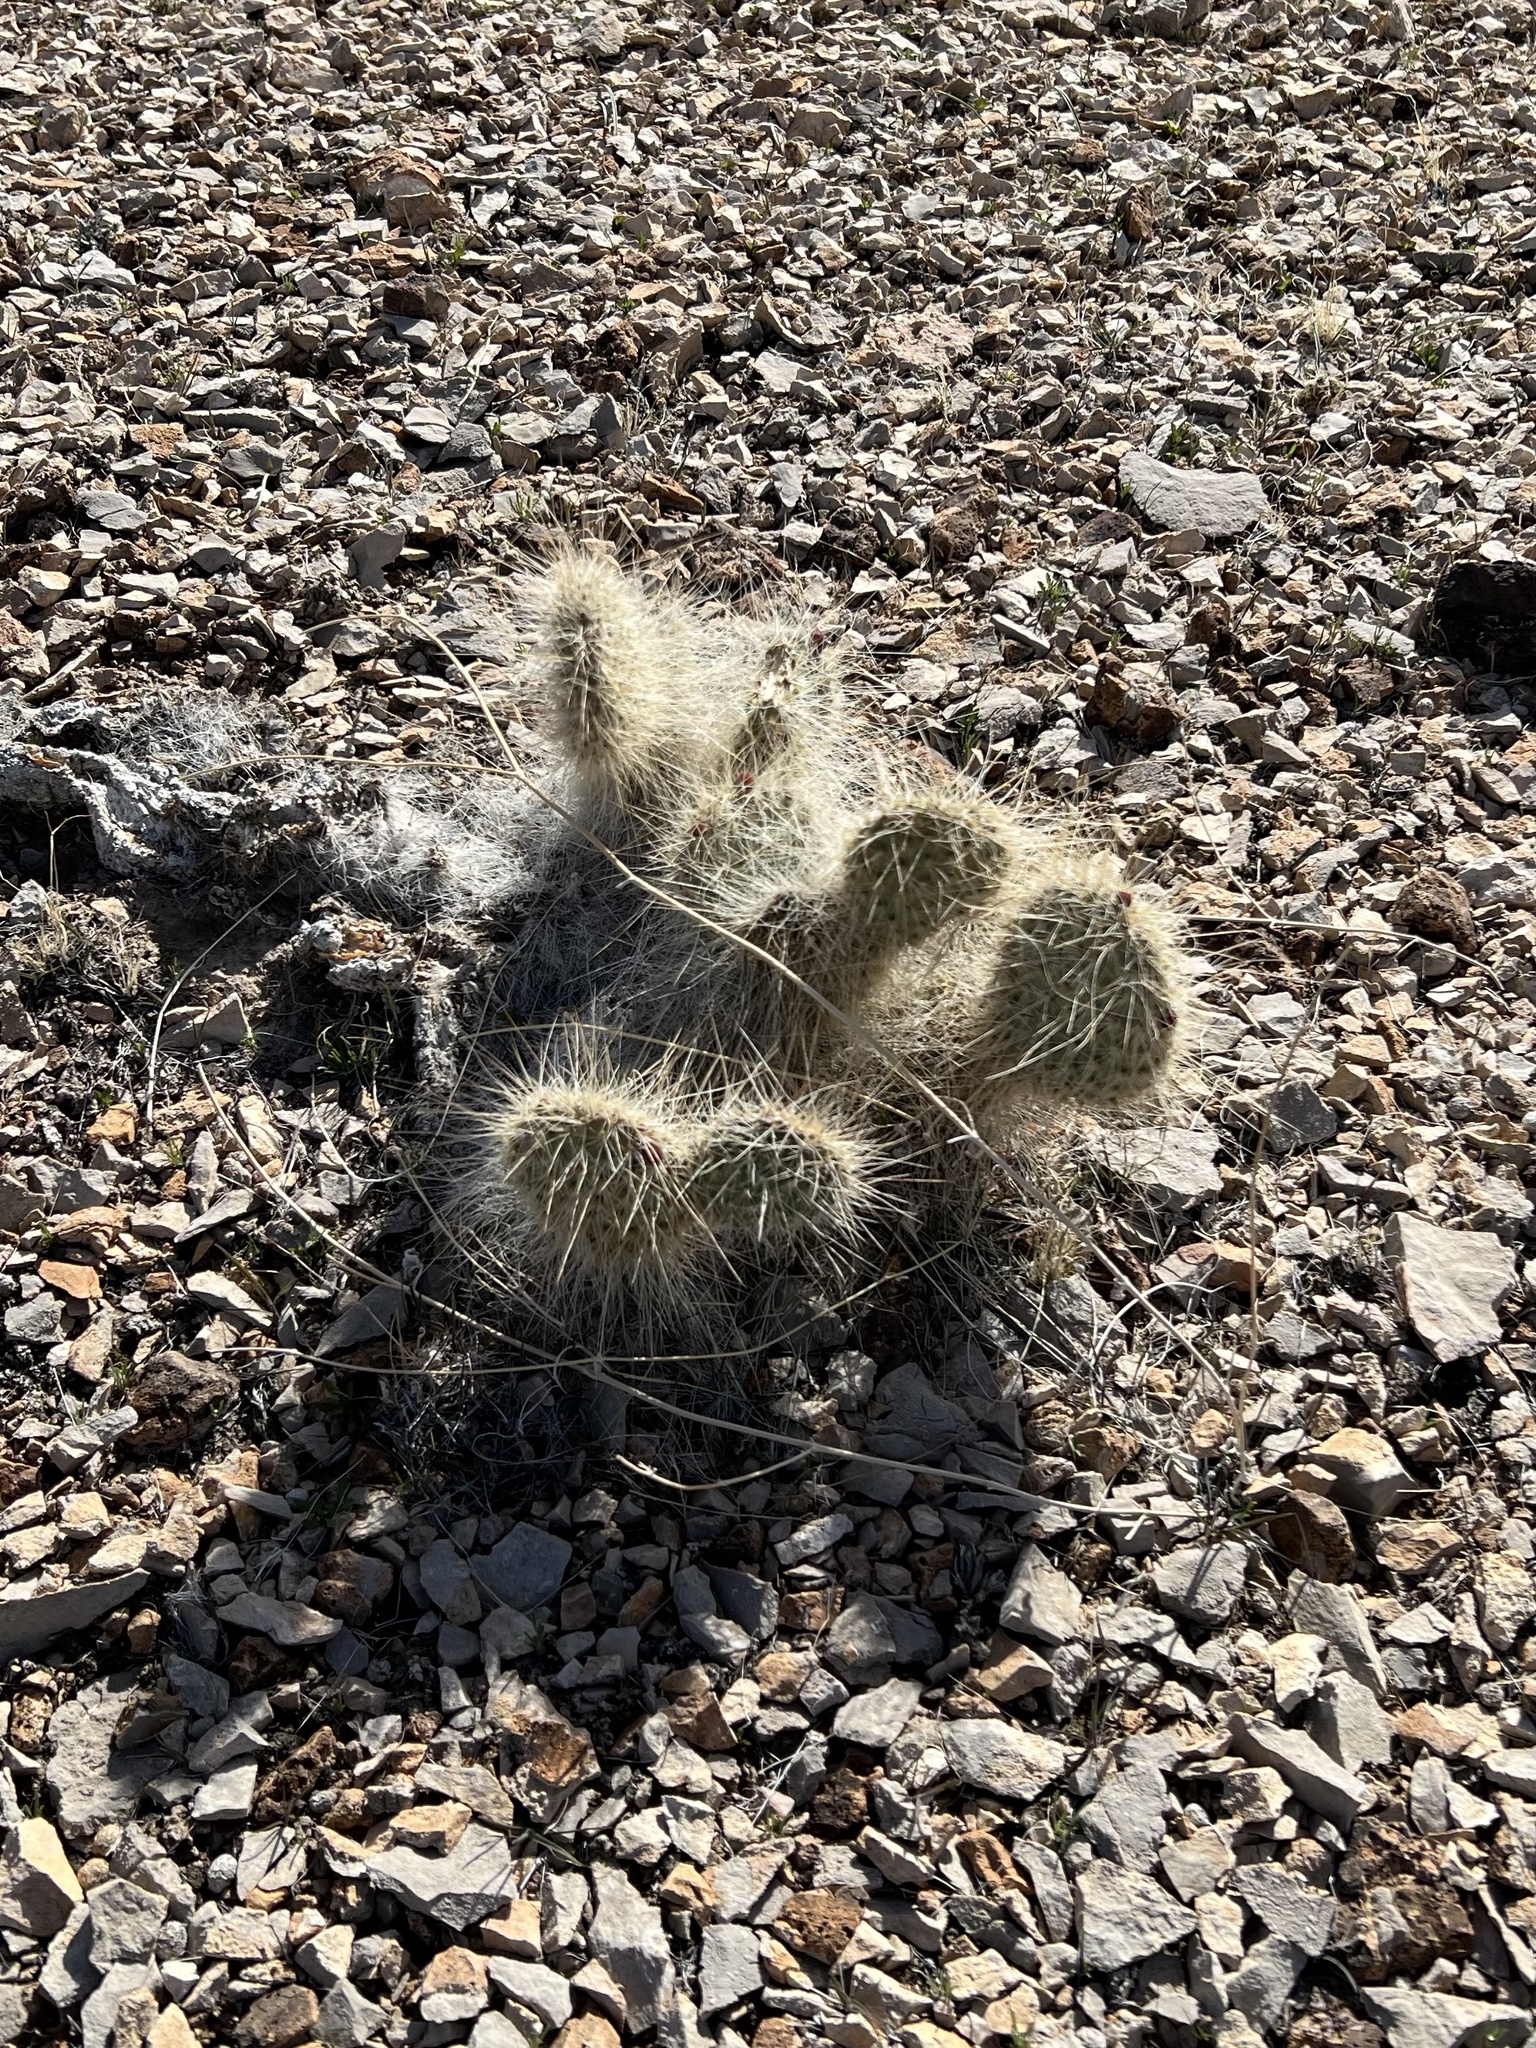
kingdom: Plantae
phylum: Tracheophyta
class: Magnoliopsida
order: Caryophyllales
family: Cactaceae
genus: Opuntia
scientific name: Opuntia polyacantha
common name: Plains prickly-pear
